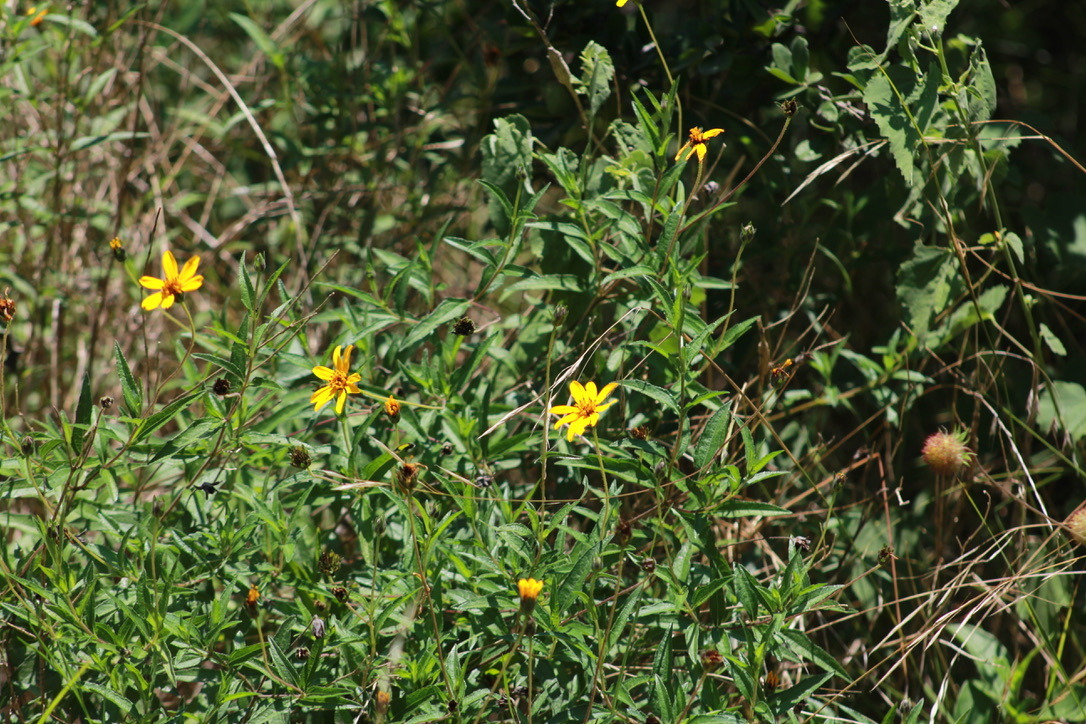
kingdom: Plantae
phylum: Tracheophyta
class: Magnoliopsida
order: Asterales
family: Asteraceae
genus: Wedelia
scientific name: Wedelia acapulcensis
